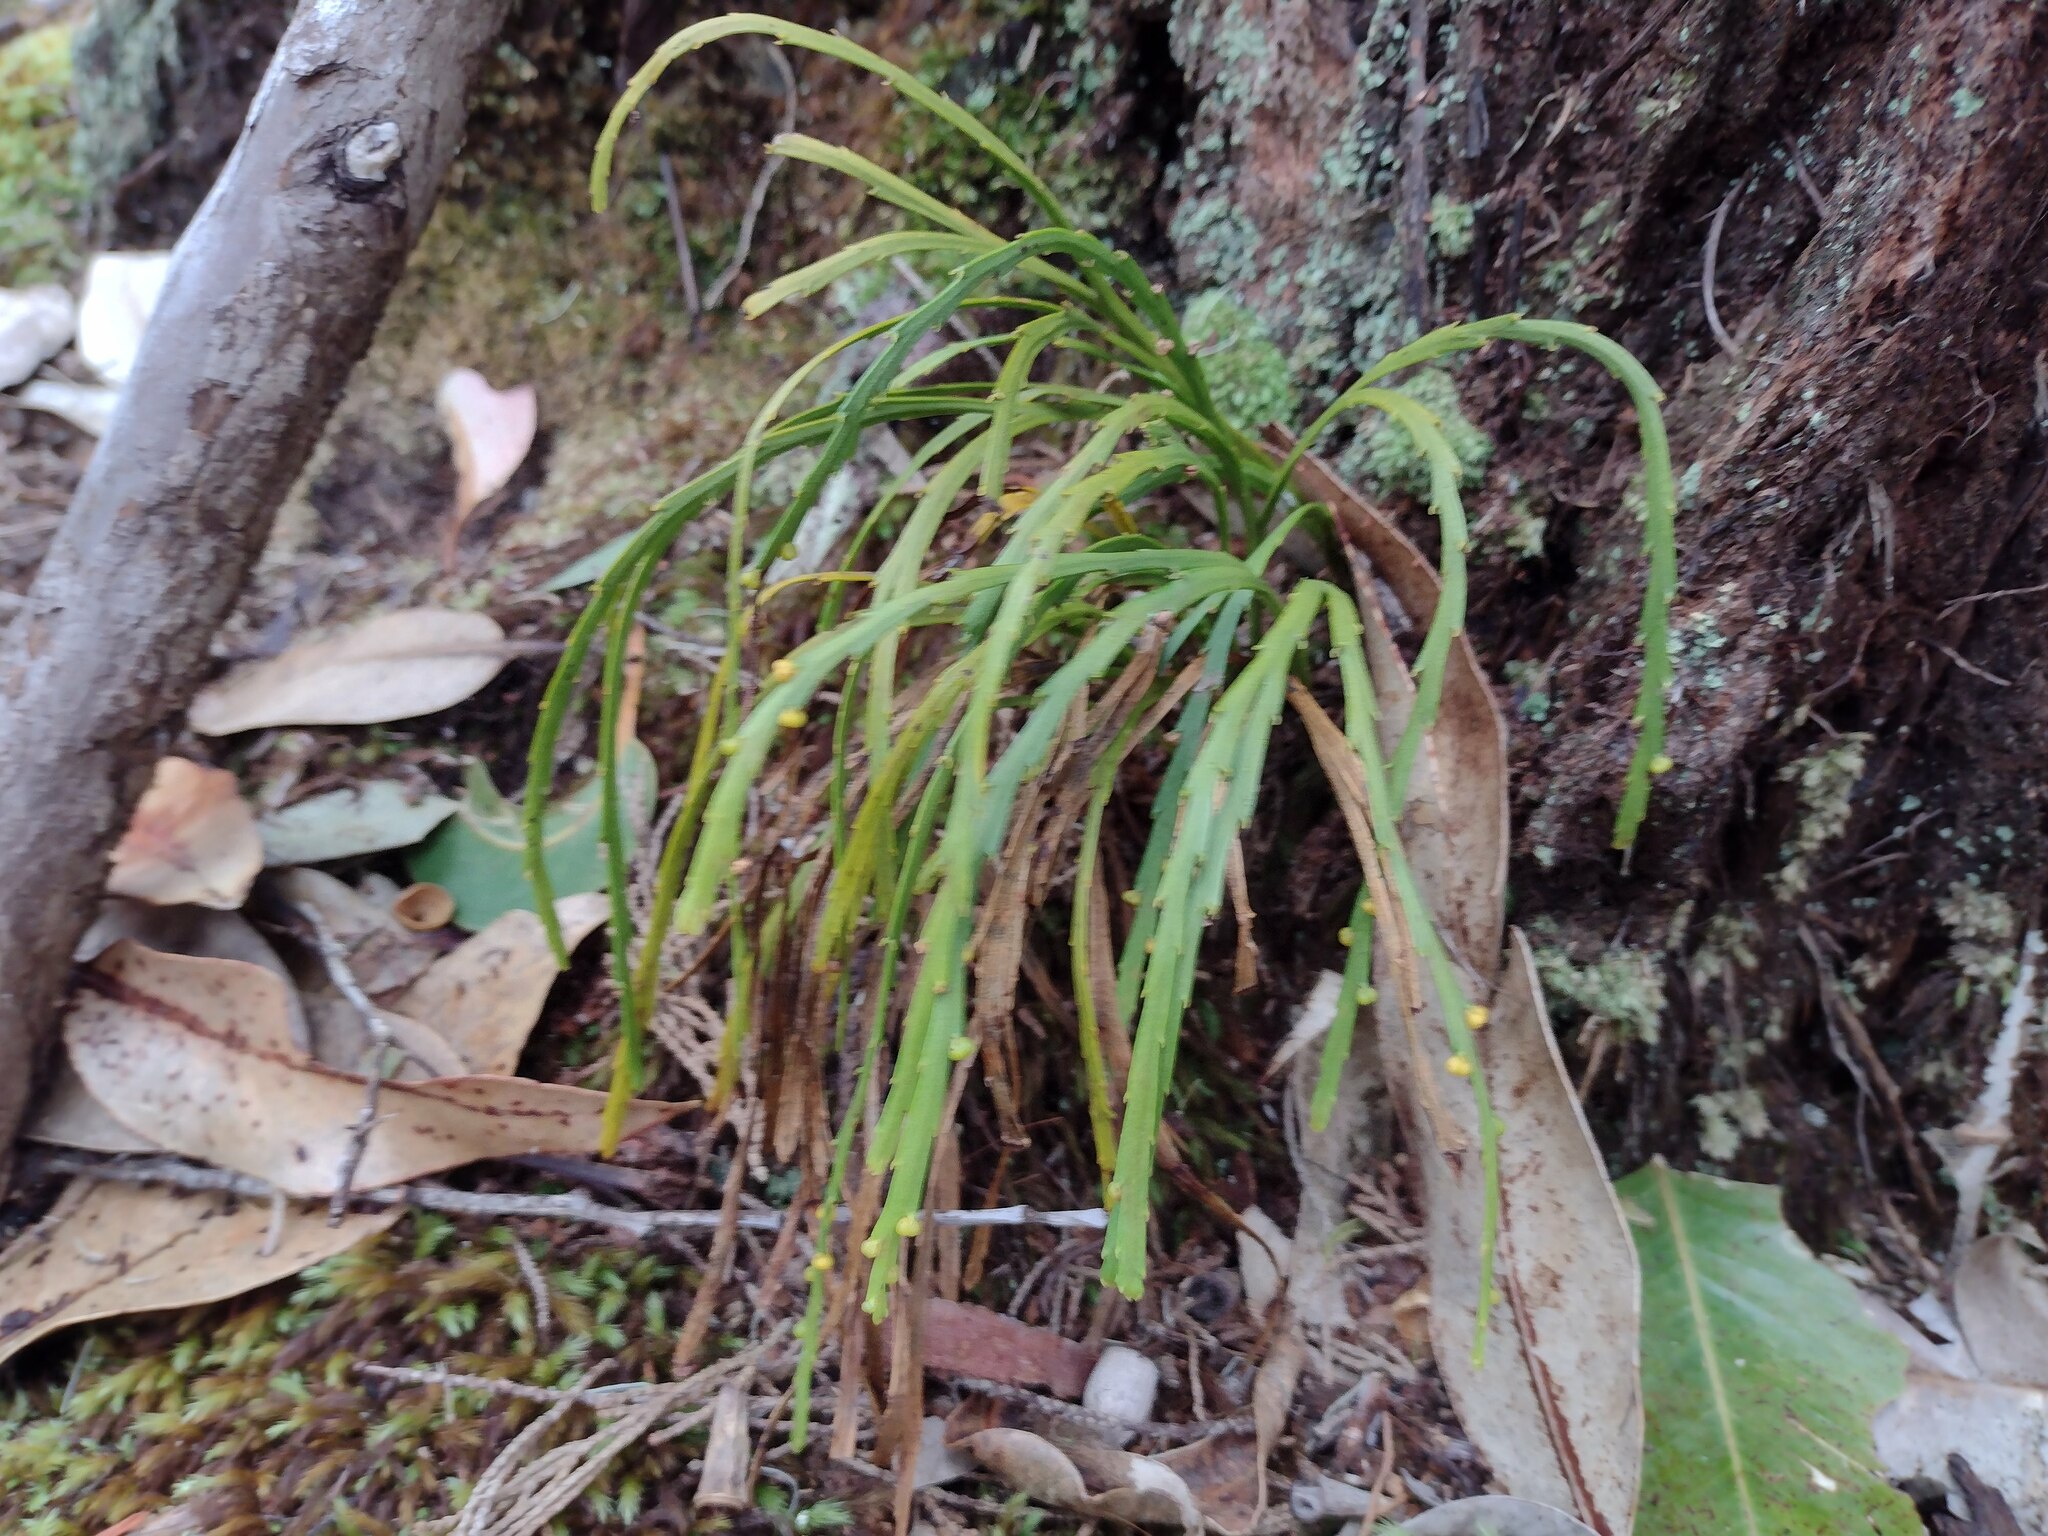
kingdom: Plantae
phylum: Tracheophyta
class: Polypodiopsida
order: Psilotales
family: Psilotaceae
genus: Psilotum
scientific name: Psilotum complanatum
